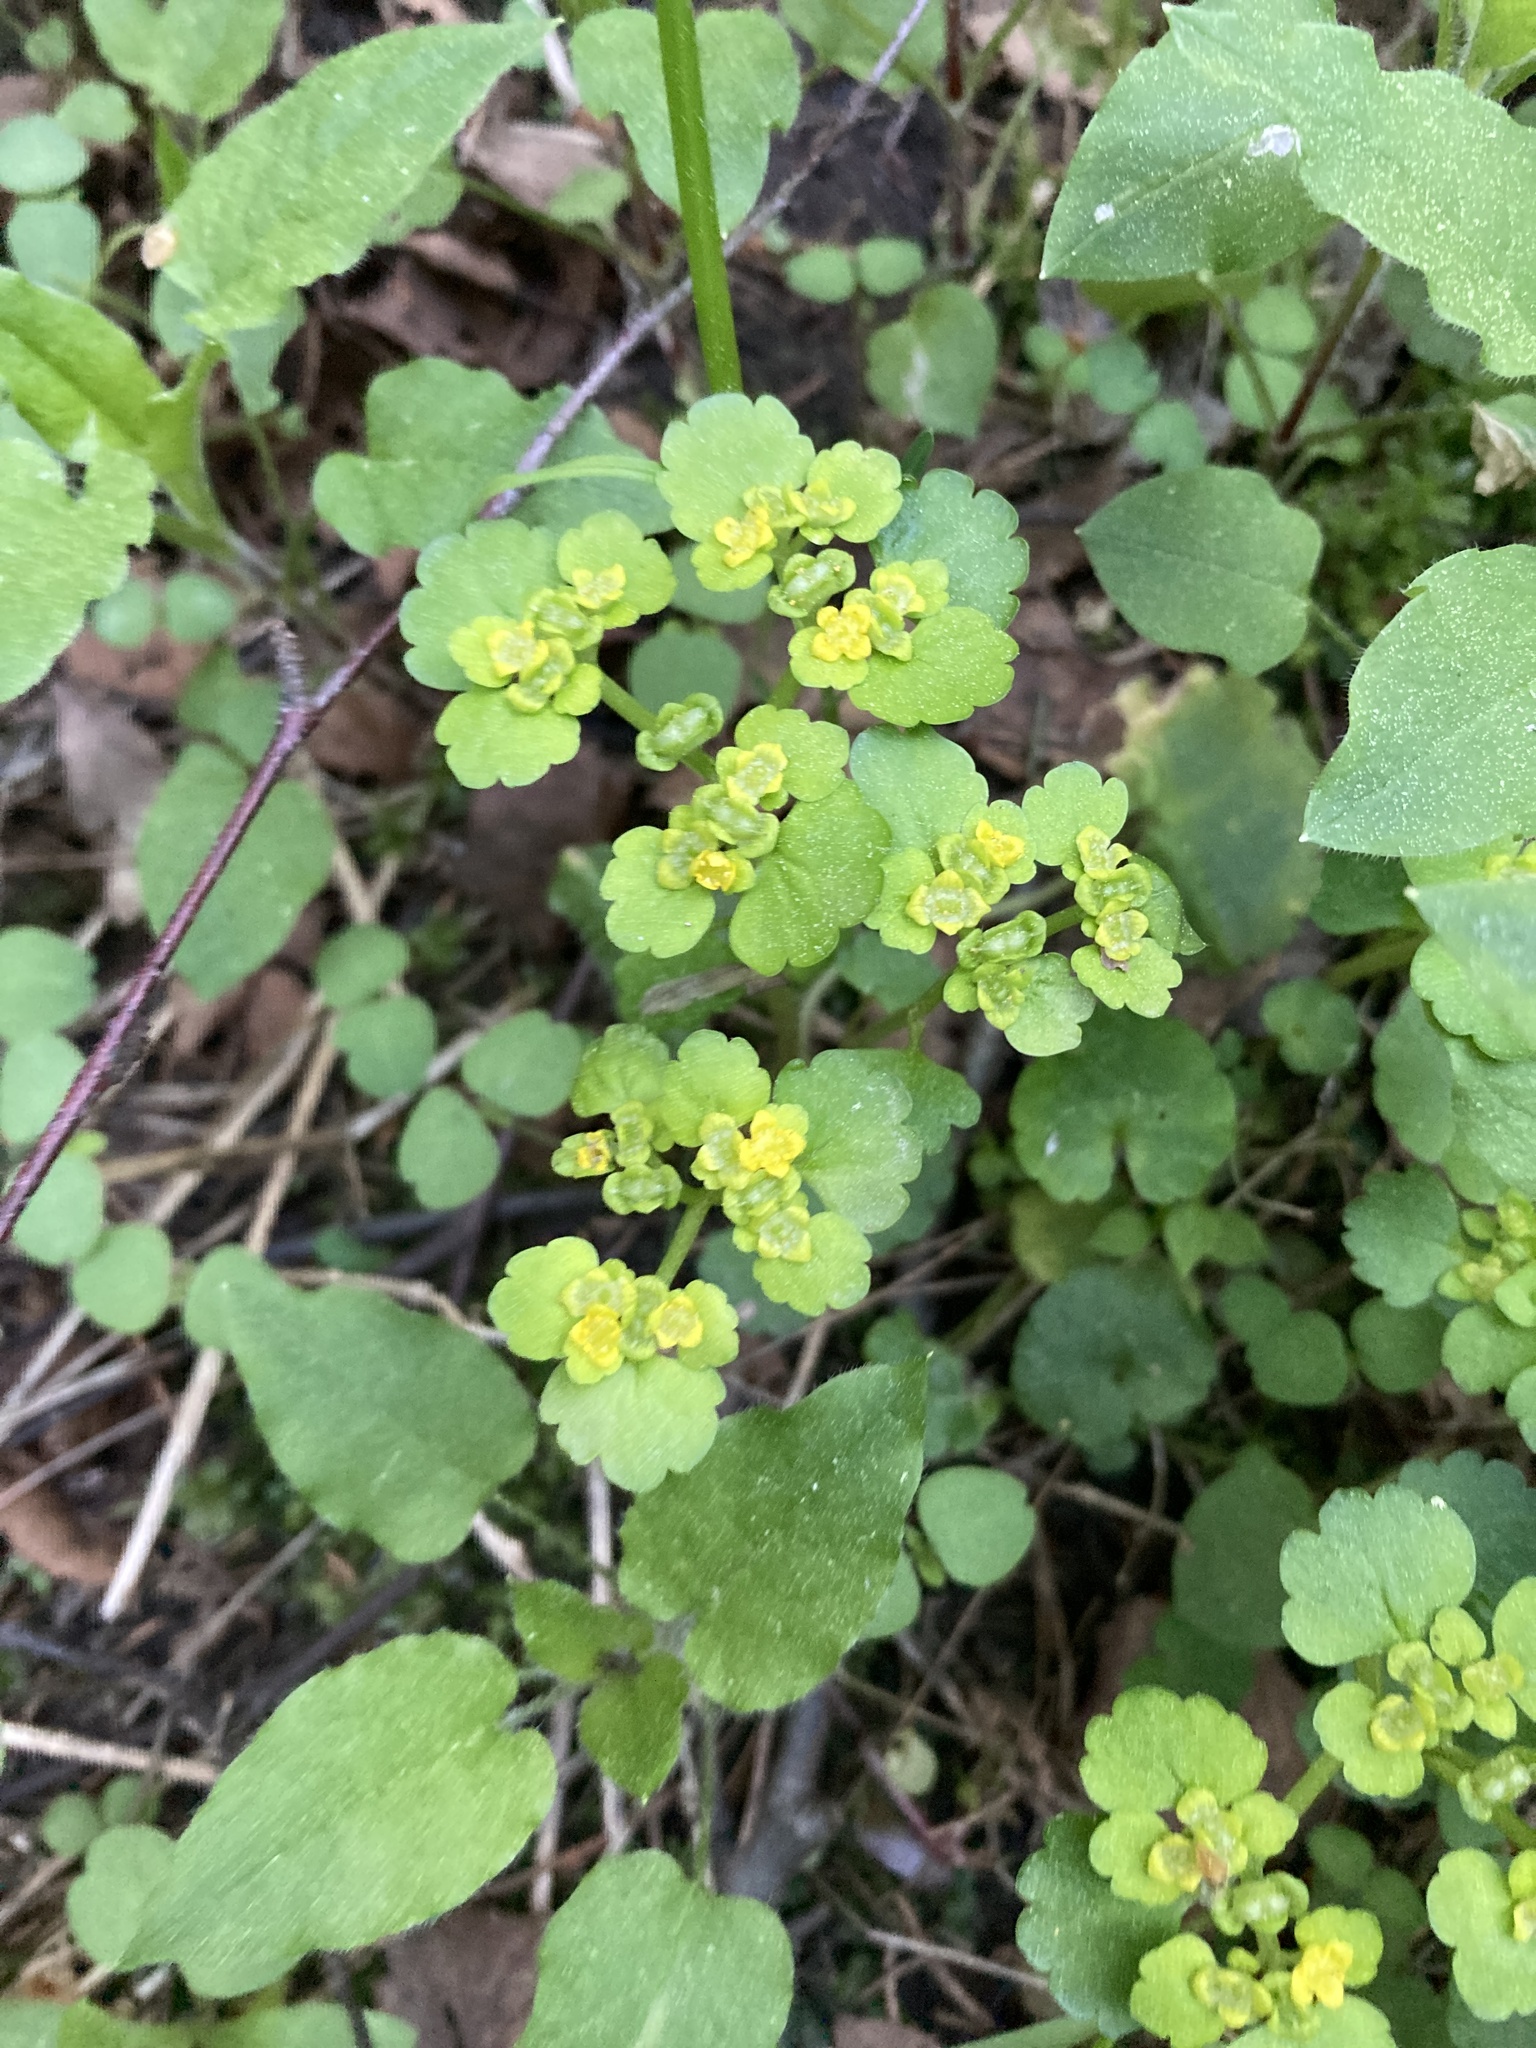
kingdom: Plantae
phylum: Tracheophyta
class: Magnoliopsida
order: Saxifragales
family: Saxifragaceae
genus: Chrysosplenium
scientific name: Chrysosplenium alternifolium
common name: Alternate-leaved golden-saxifrage
